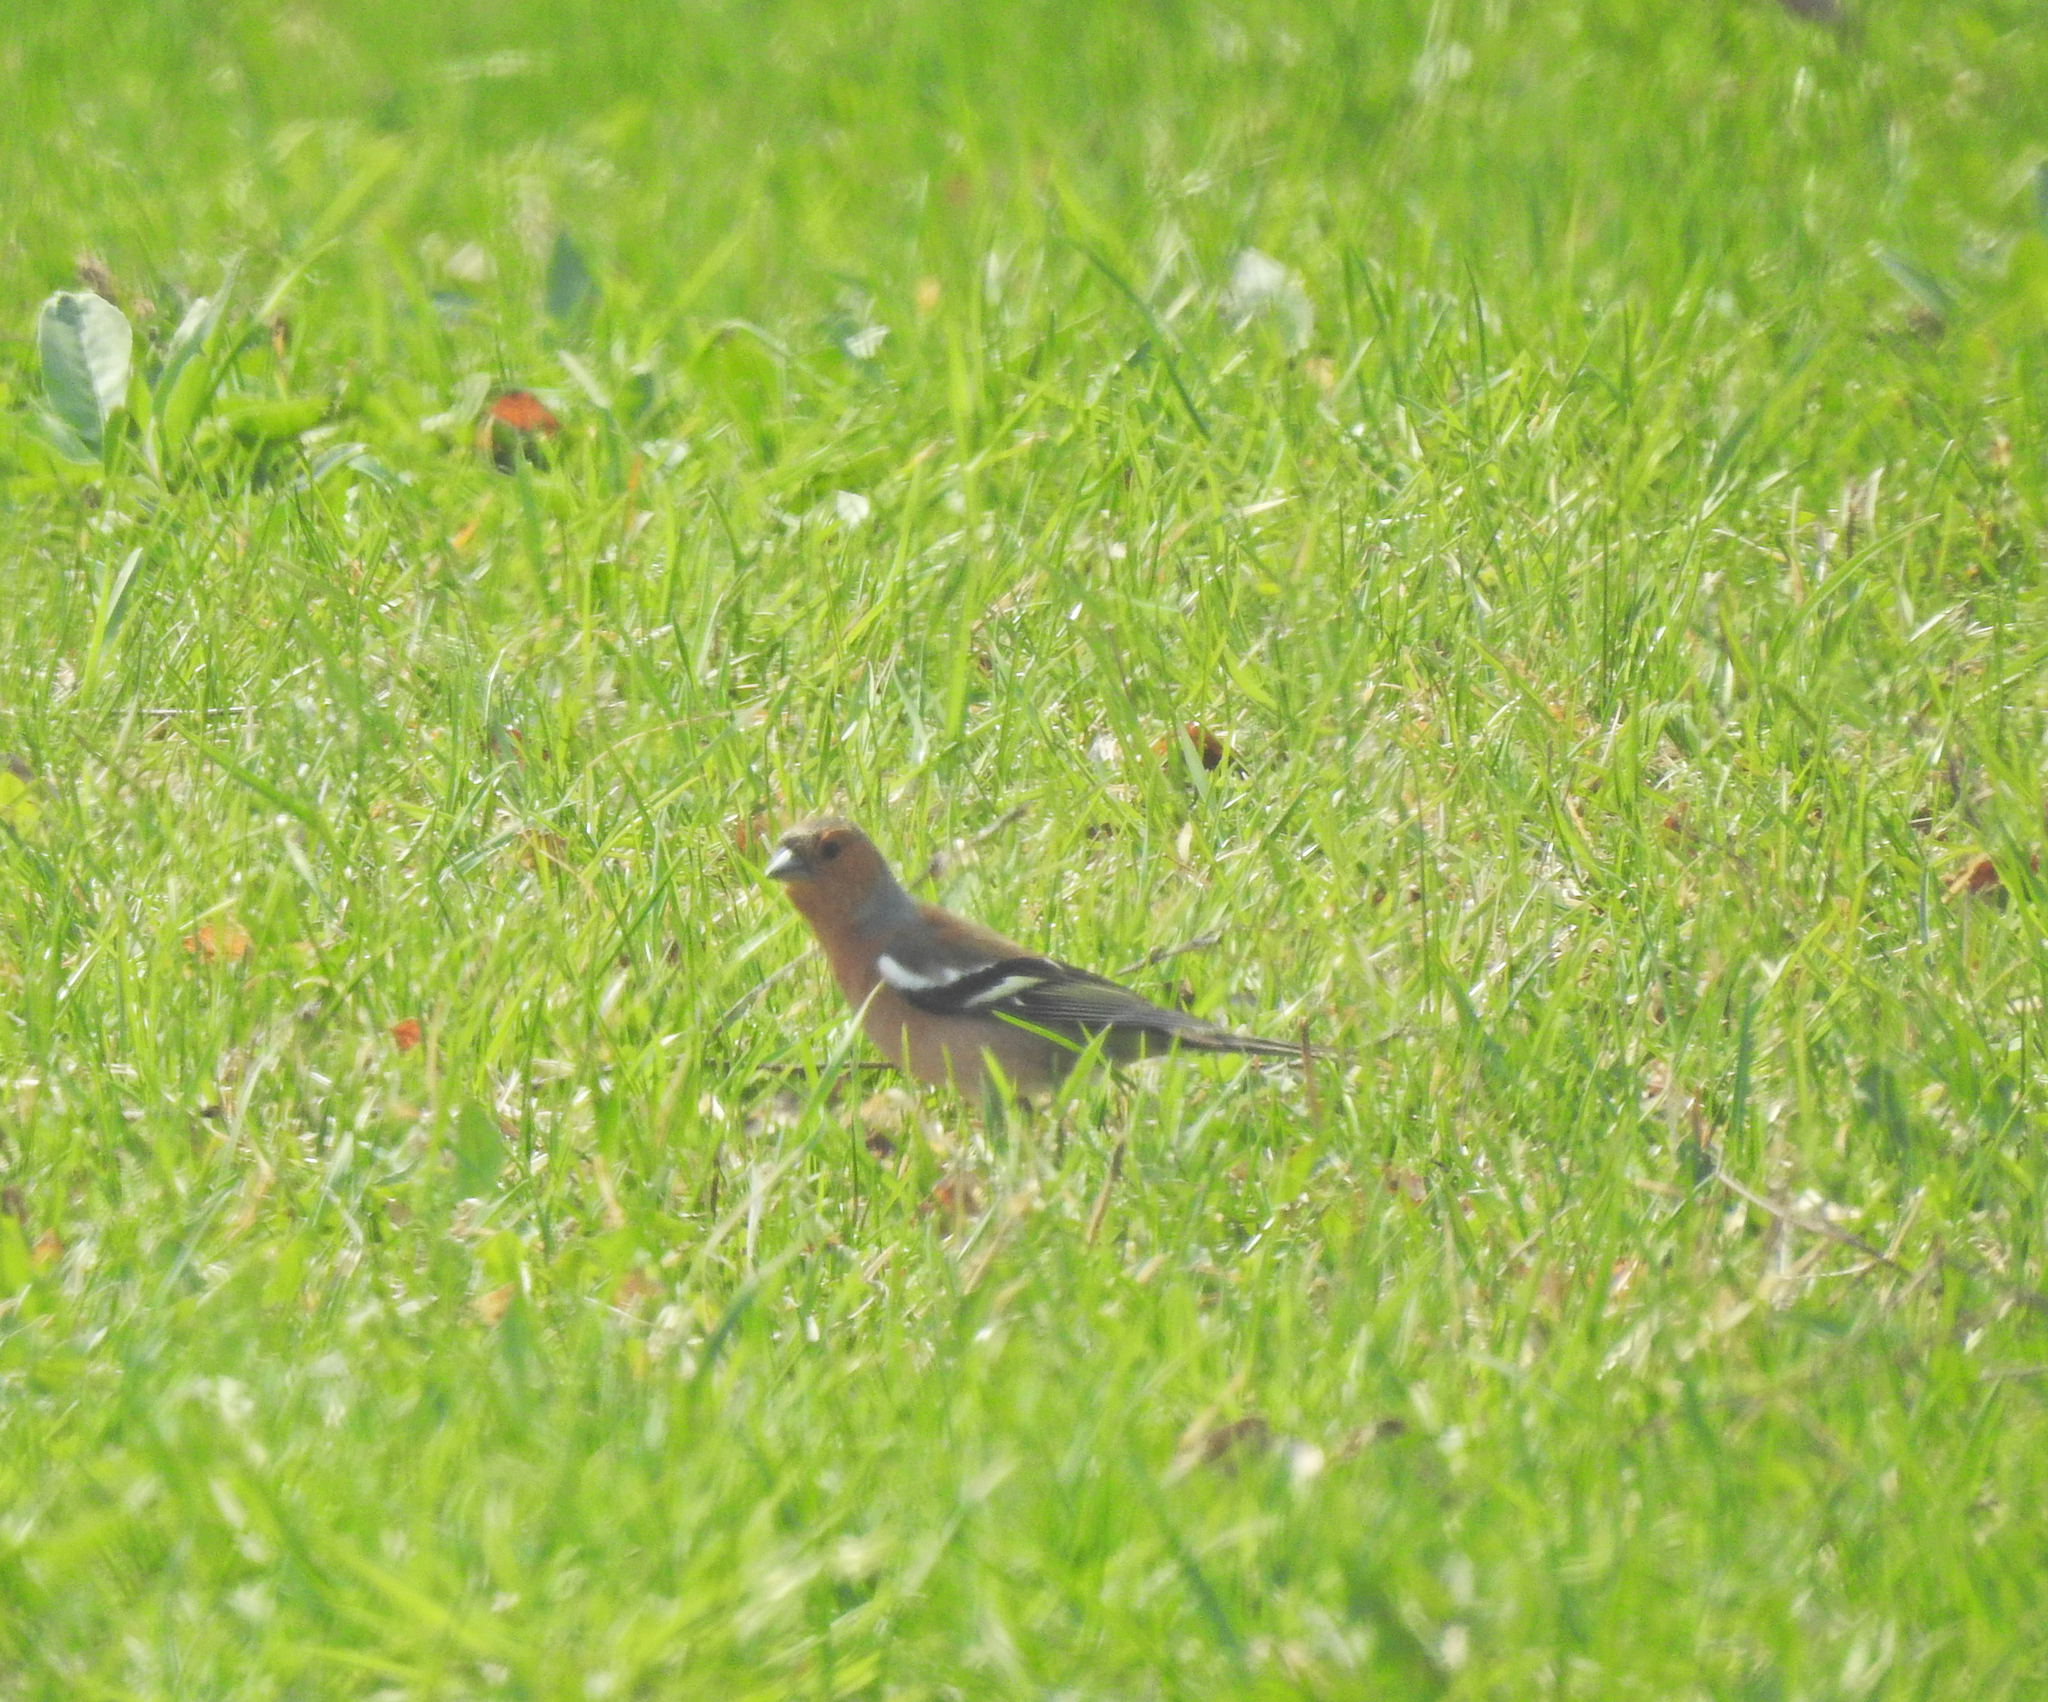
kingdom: Animalia
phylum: Chordata
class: Aves
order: Passeriformes
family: Fringillidae
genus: Fringilla
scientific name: Fringilla coelebs
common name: Common chaffinch
